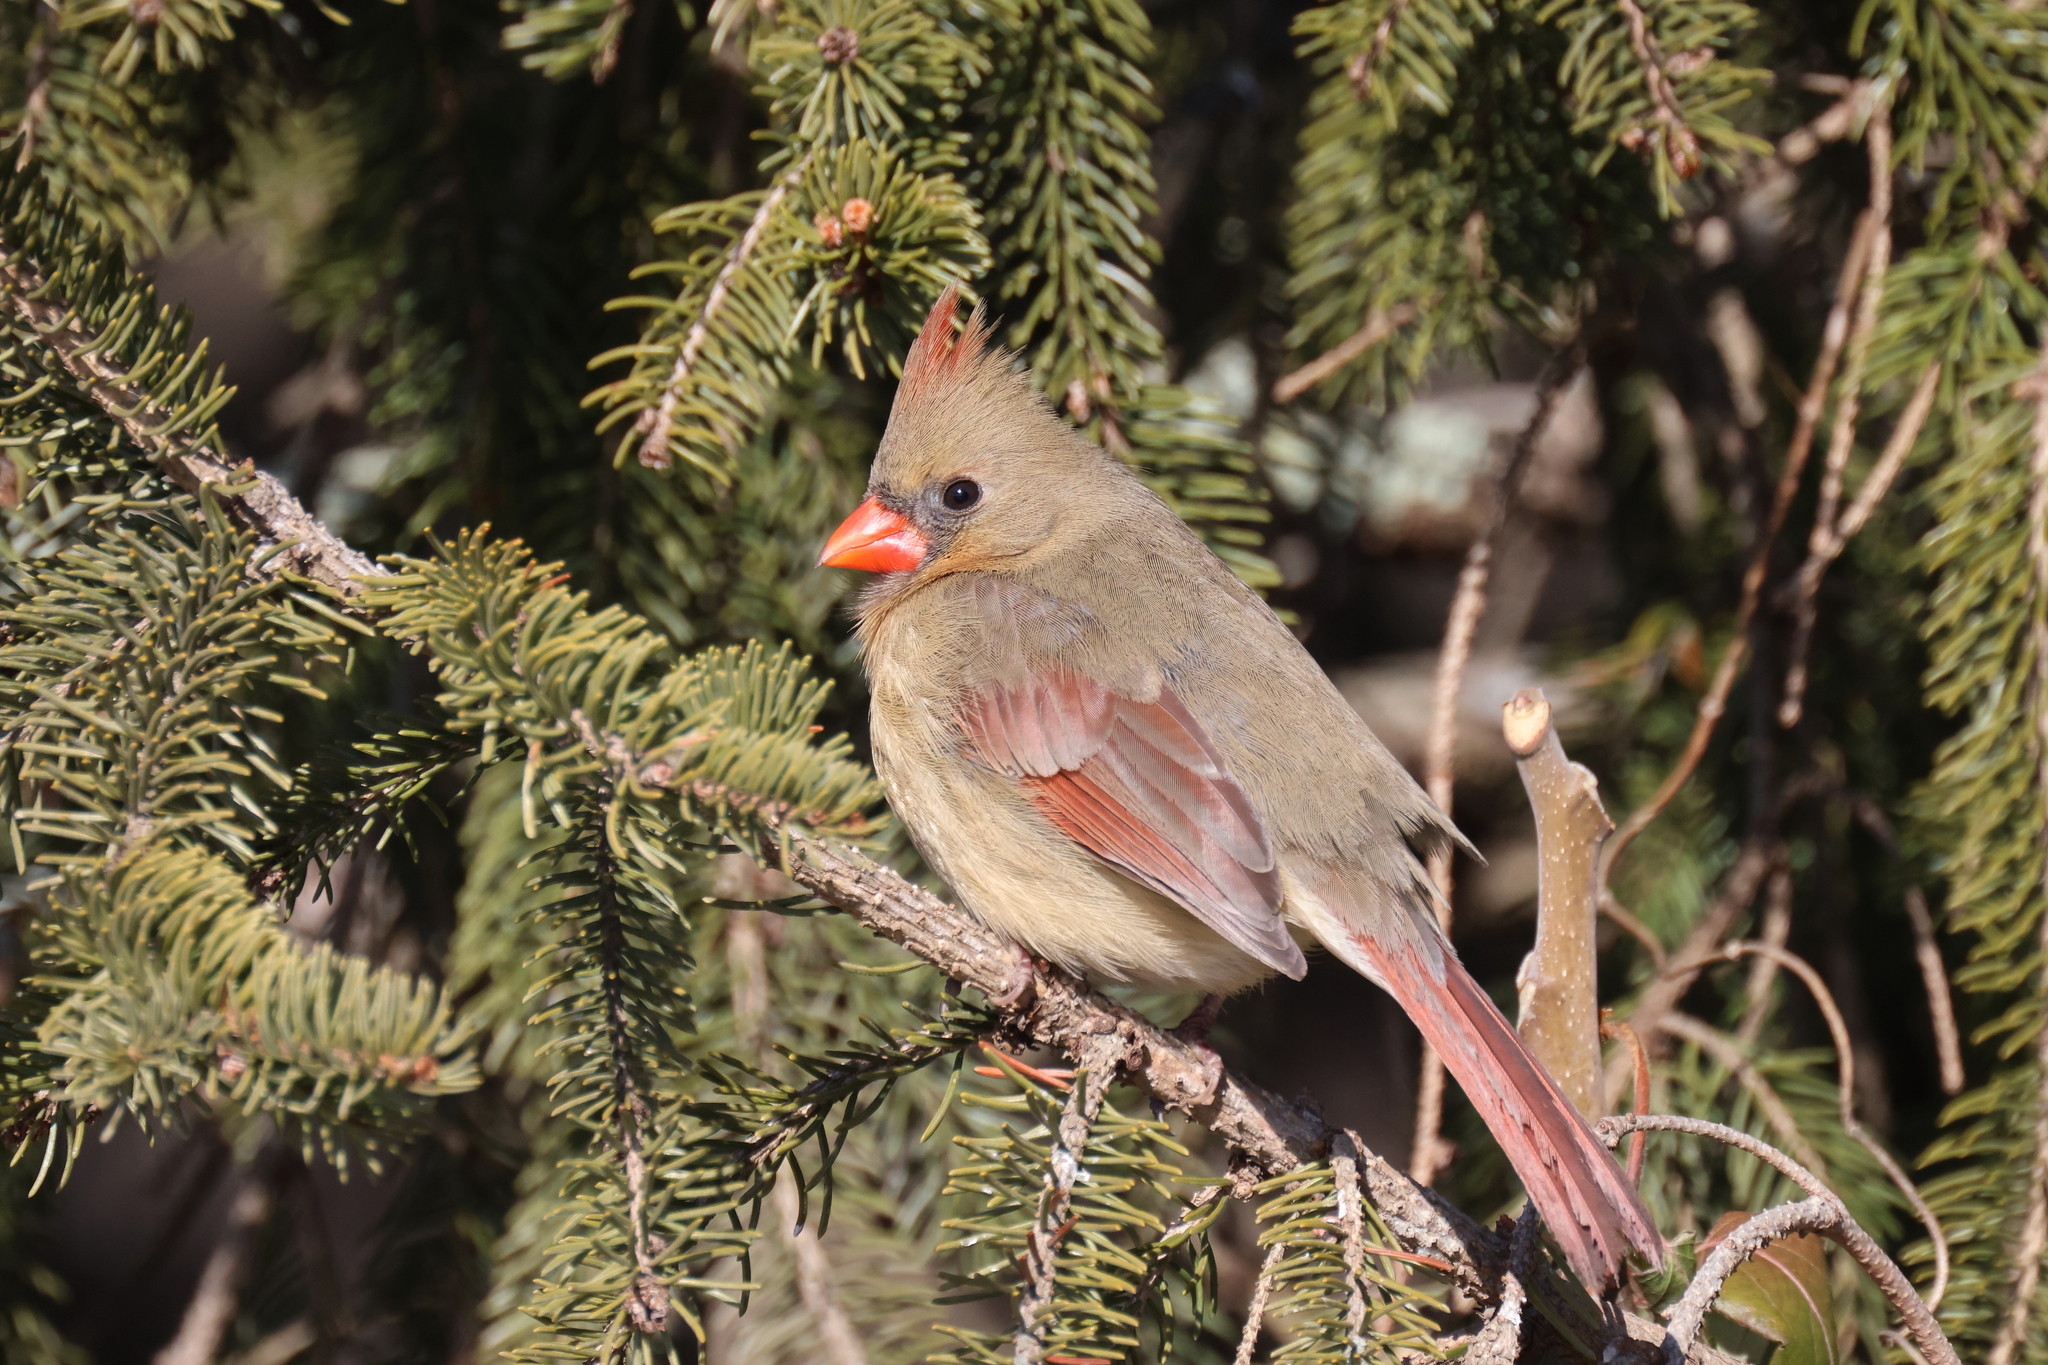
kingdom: Animalia
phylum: Chordata
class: Aves
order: Passeriformes
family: Cardinalidae
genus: Cardinalis
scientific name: Cardinalis cardinalis
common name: Northern cardinal
